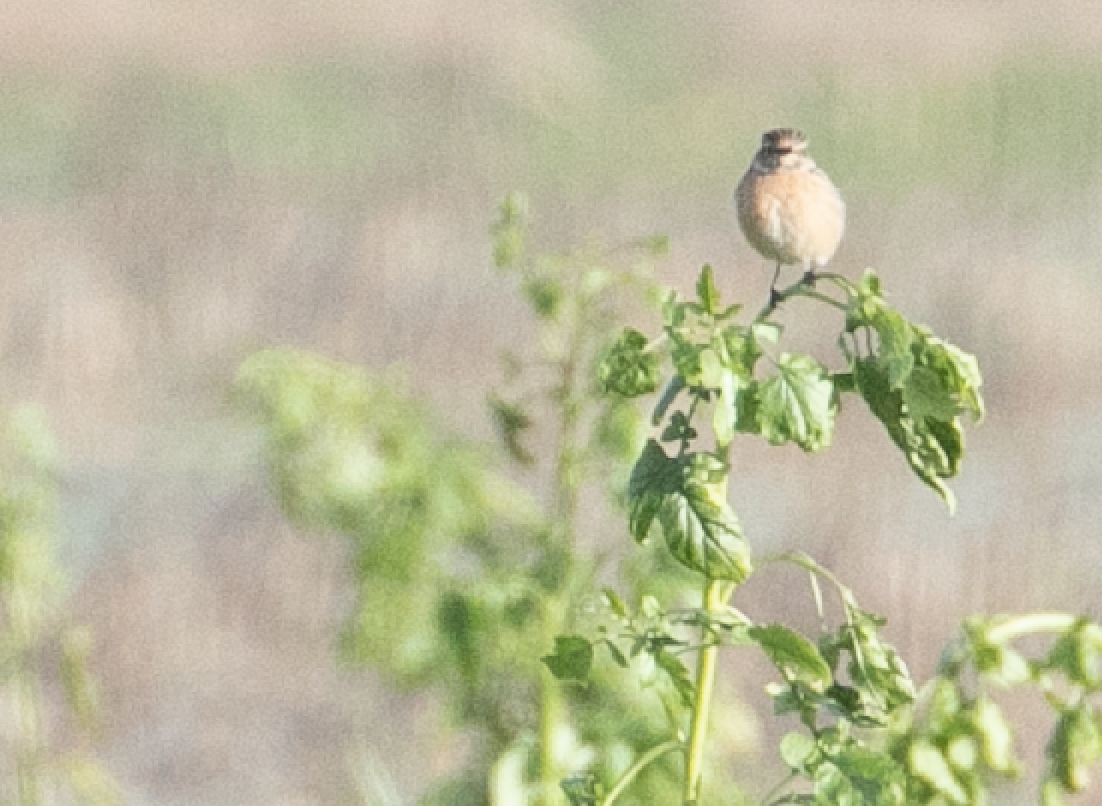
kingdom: Animalia
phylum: Chordata
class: Aves
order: Passeriformes
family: Muscicapidae
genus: Saxicola
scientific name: Saxicola rubicola
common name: European stonechat
